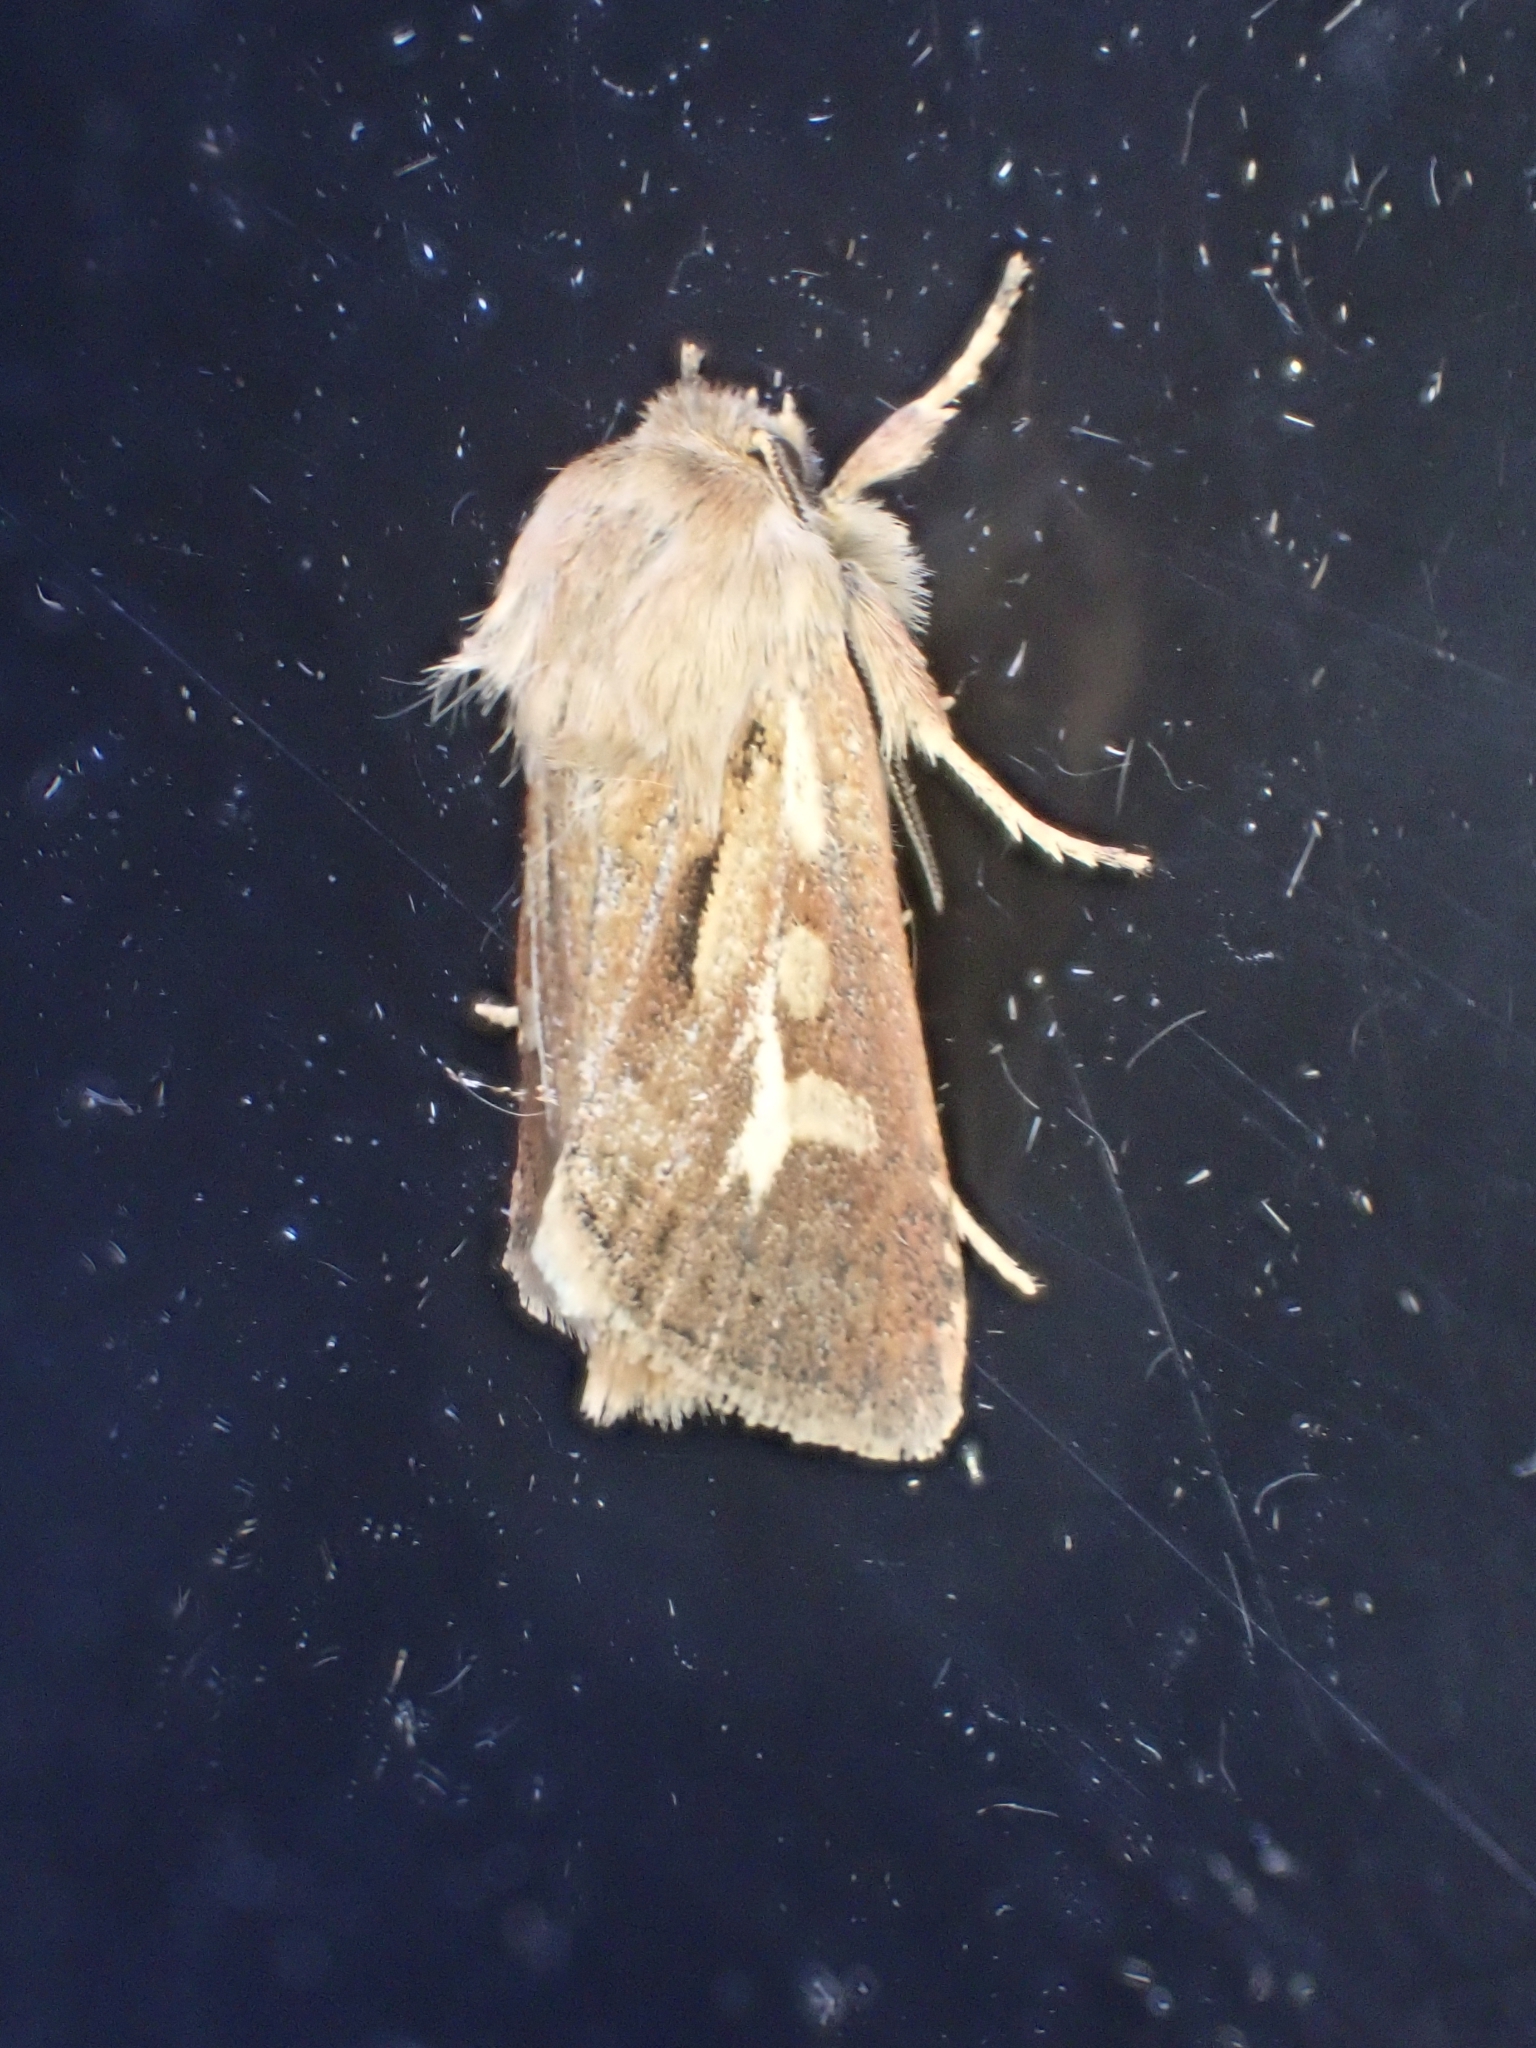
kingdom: Animalia
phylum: Arthropoda
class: Insecta
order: Lepidoptera
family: Noctuidae
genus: Cerapteryx
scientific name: Cerapteryx graminis
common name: Antler moth
